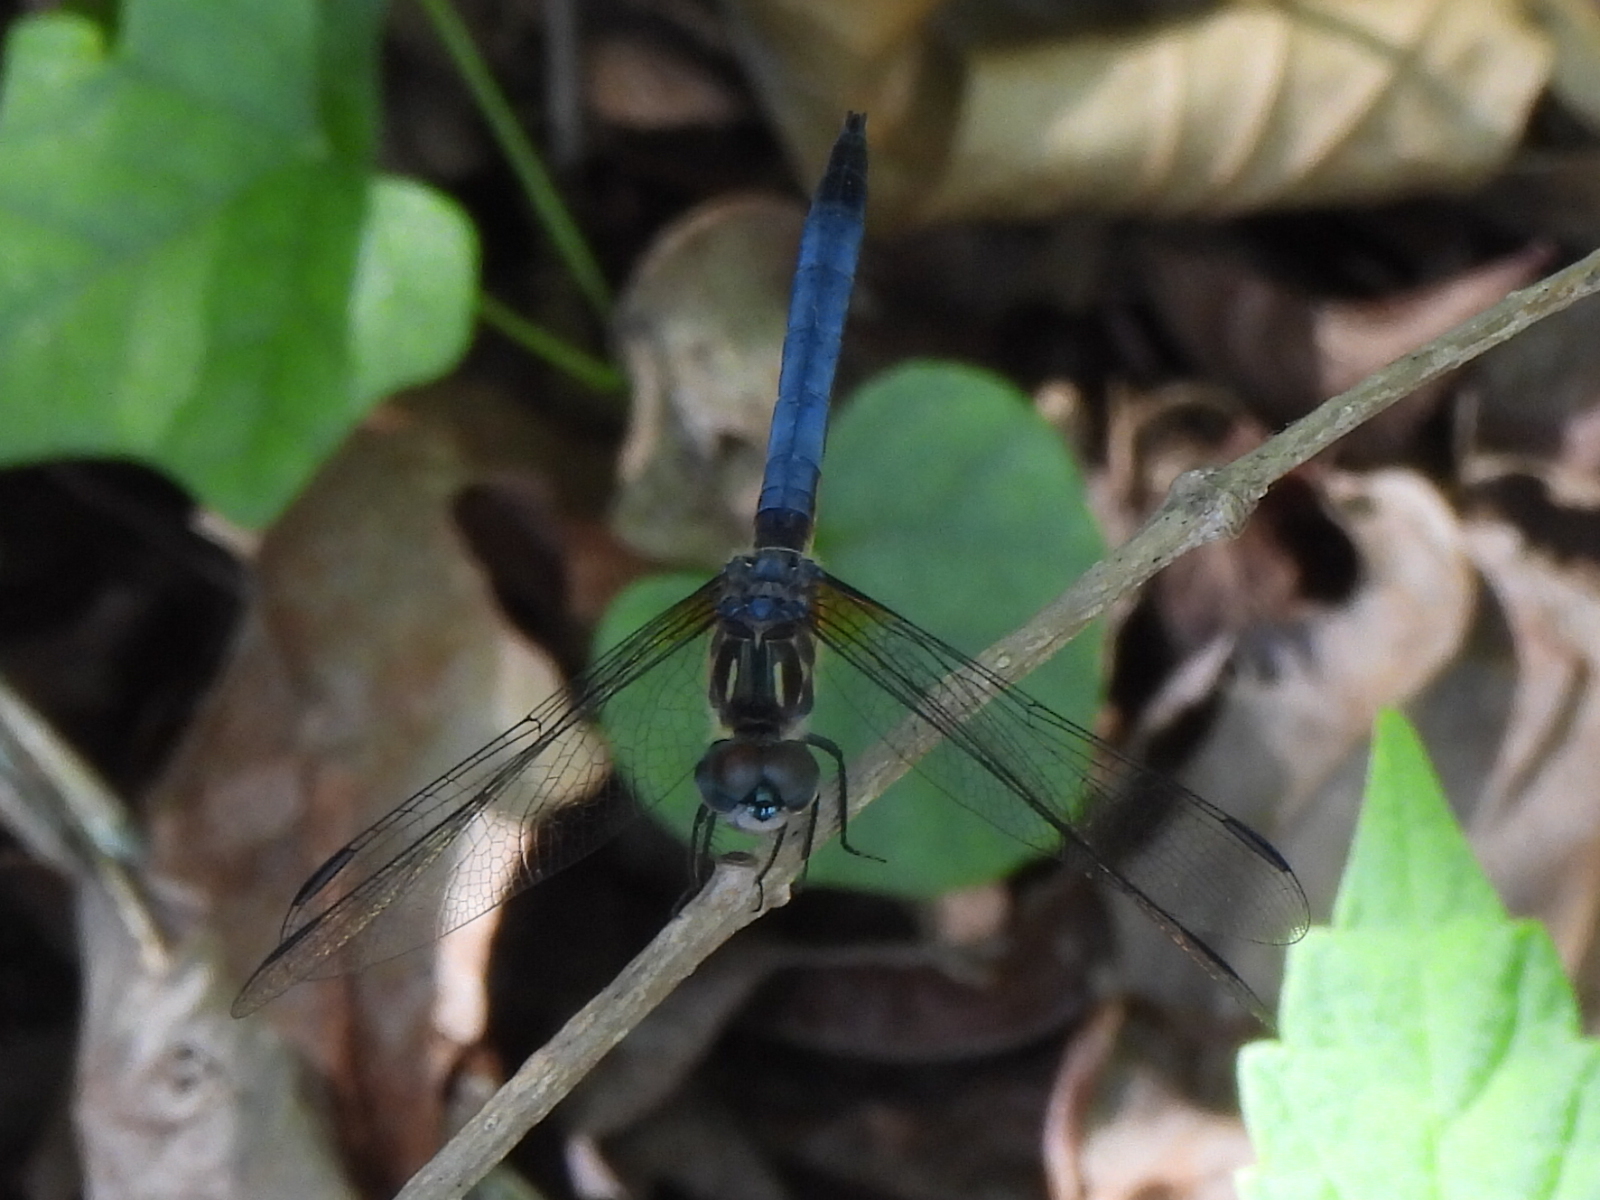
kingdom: Animalia
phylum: Arthropoda
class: Insecta
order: Odonata
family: Libellulidae
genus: Pachydiplax
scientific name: Pachydiplax longipennis
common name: Blue dasher
